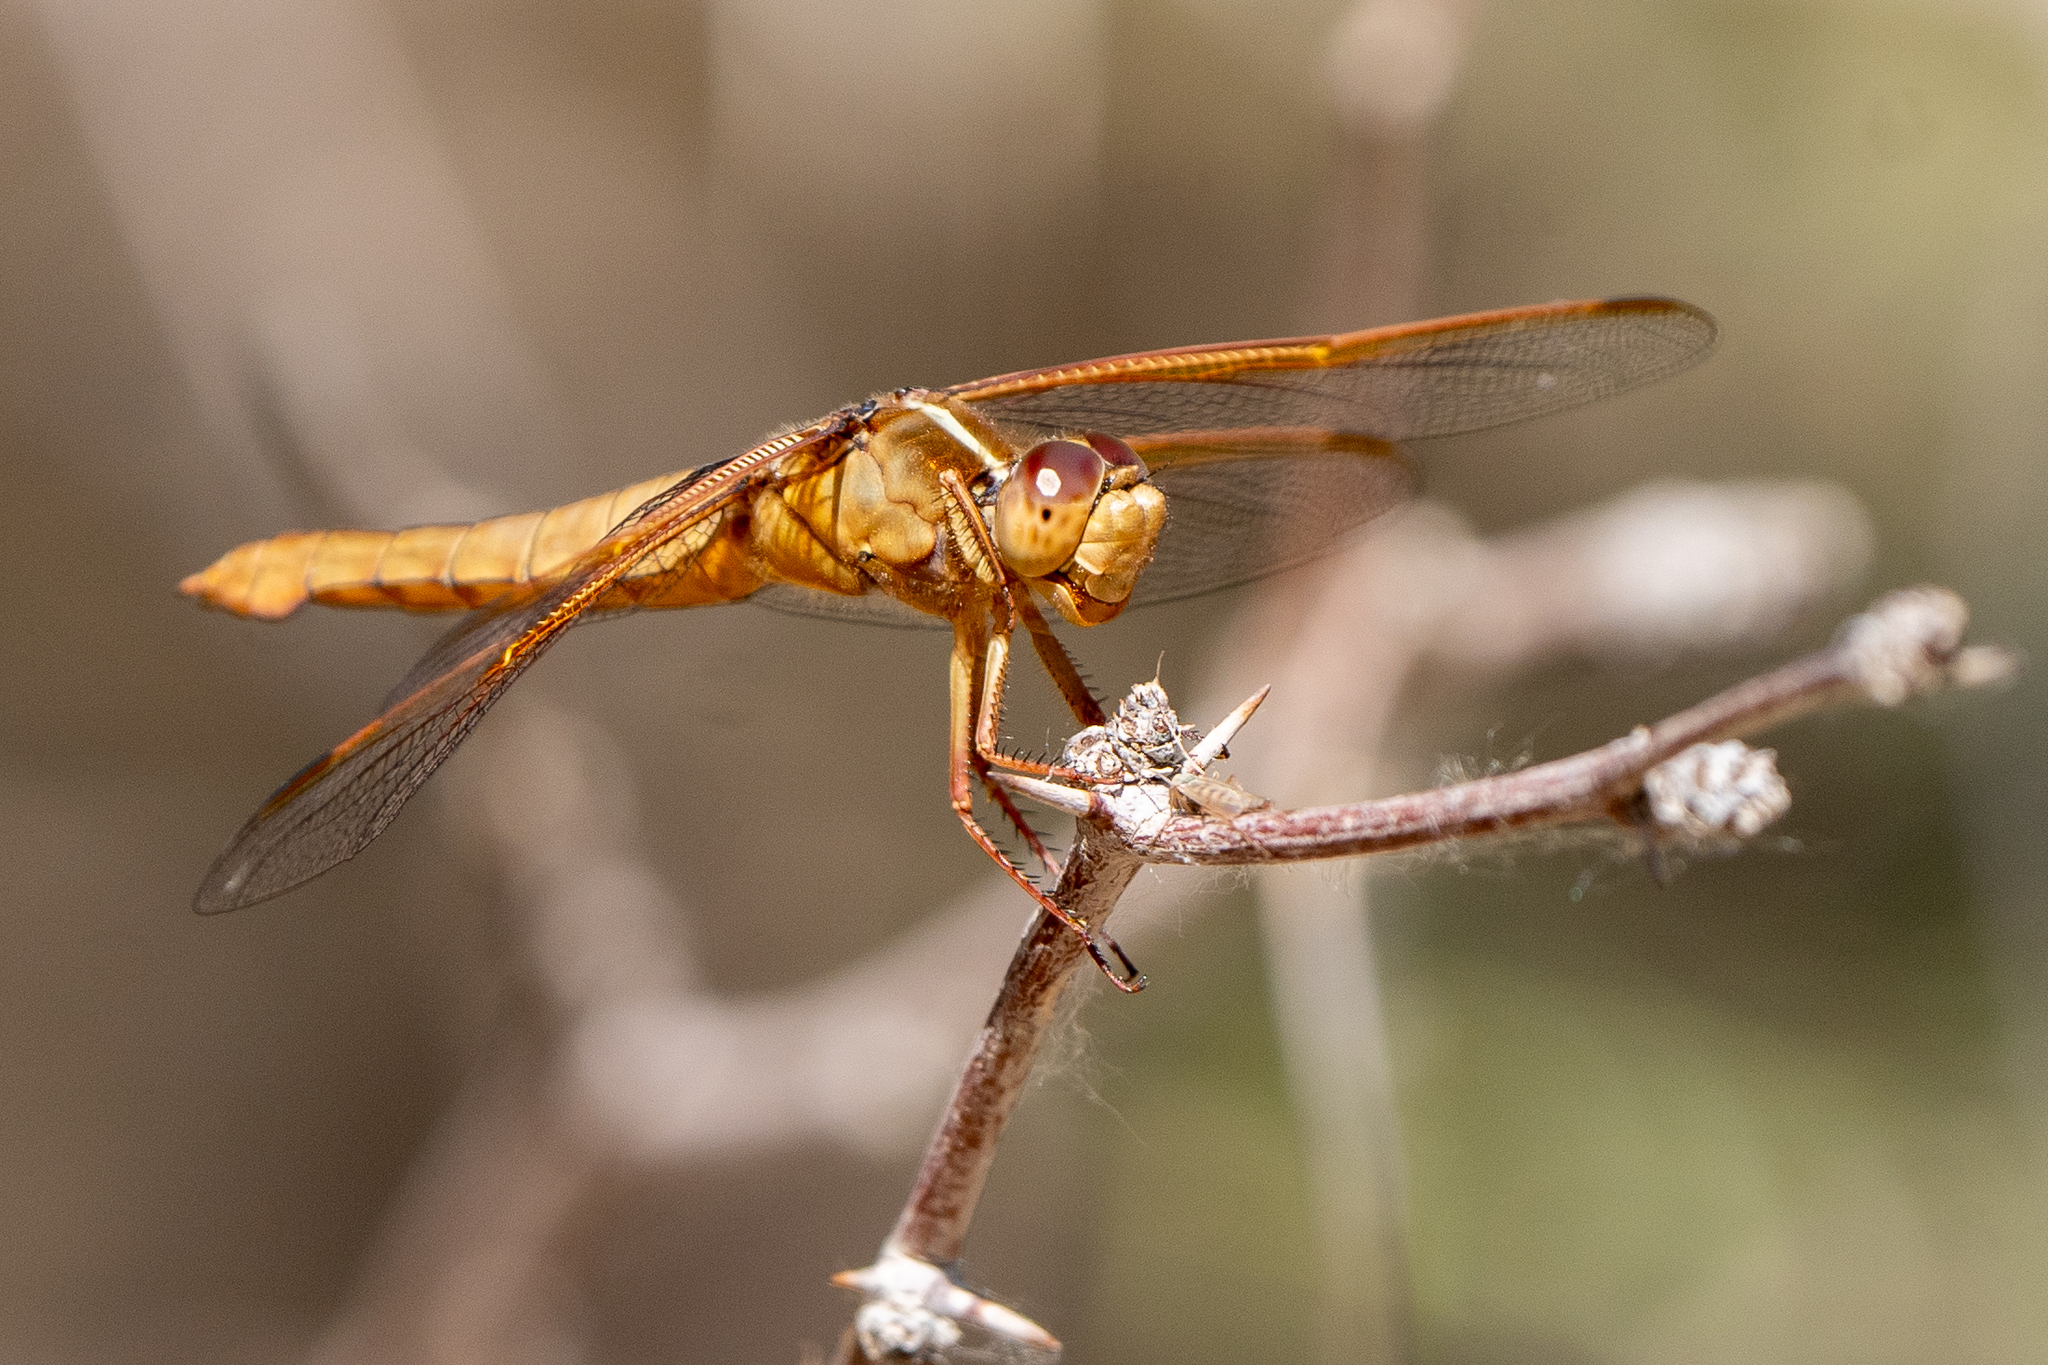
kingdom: Animalia
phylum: Arthropoda
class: Insecta
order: Odonata
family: Libellulidae
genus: Libellula
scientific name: Libellula saturata
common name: Flame skimmer
